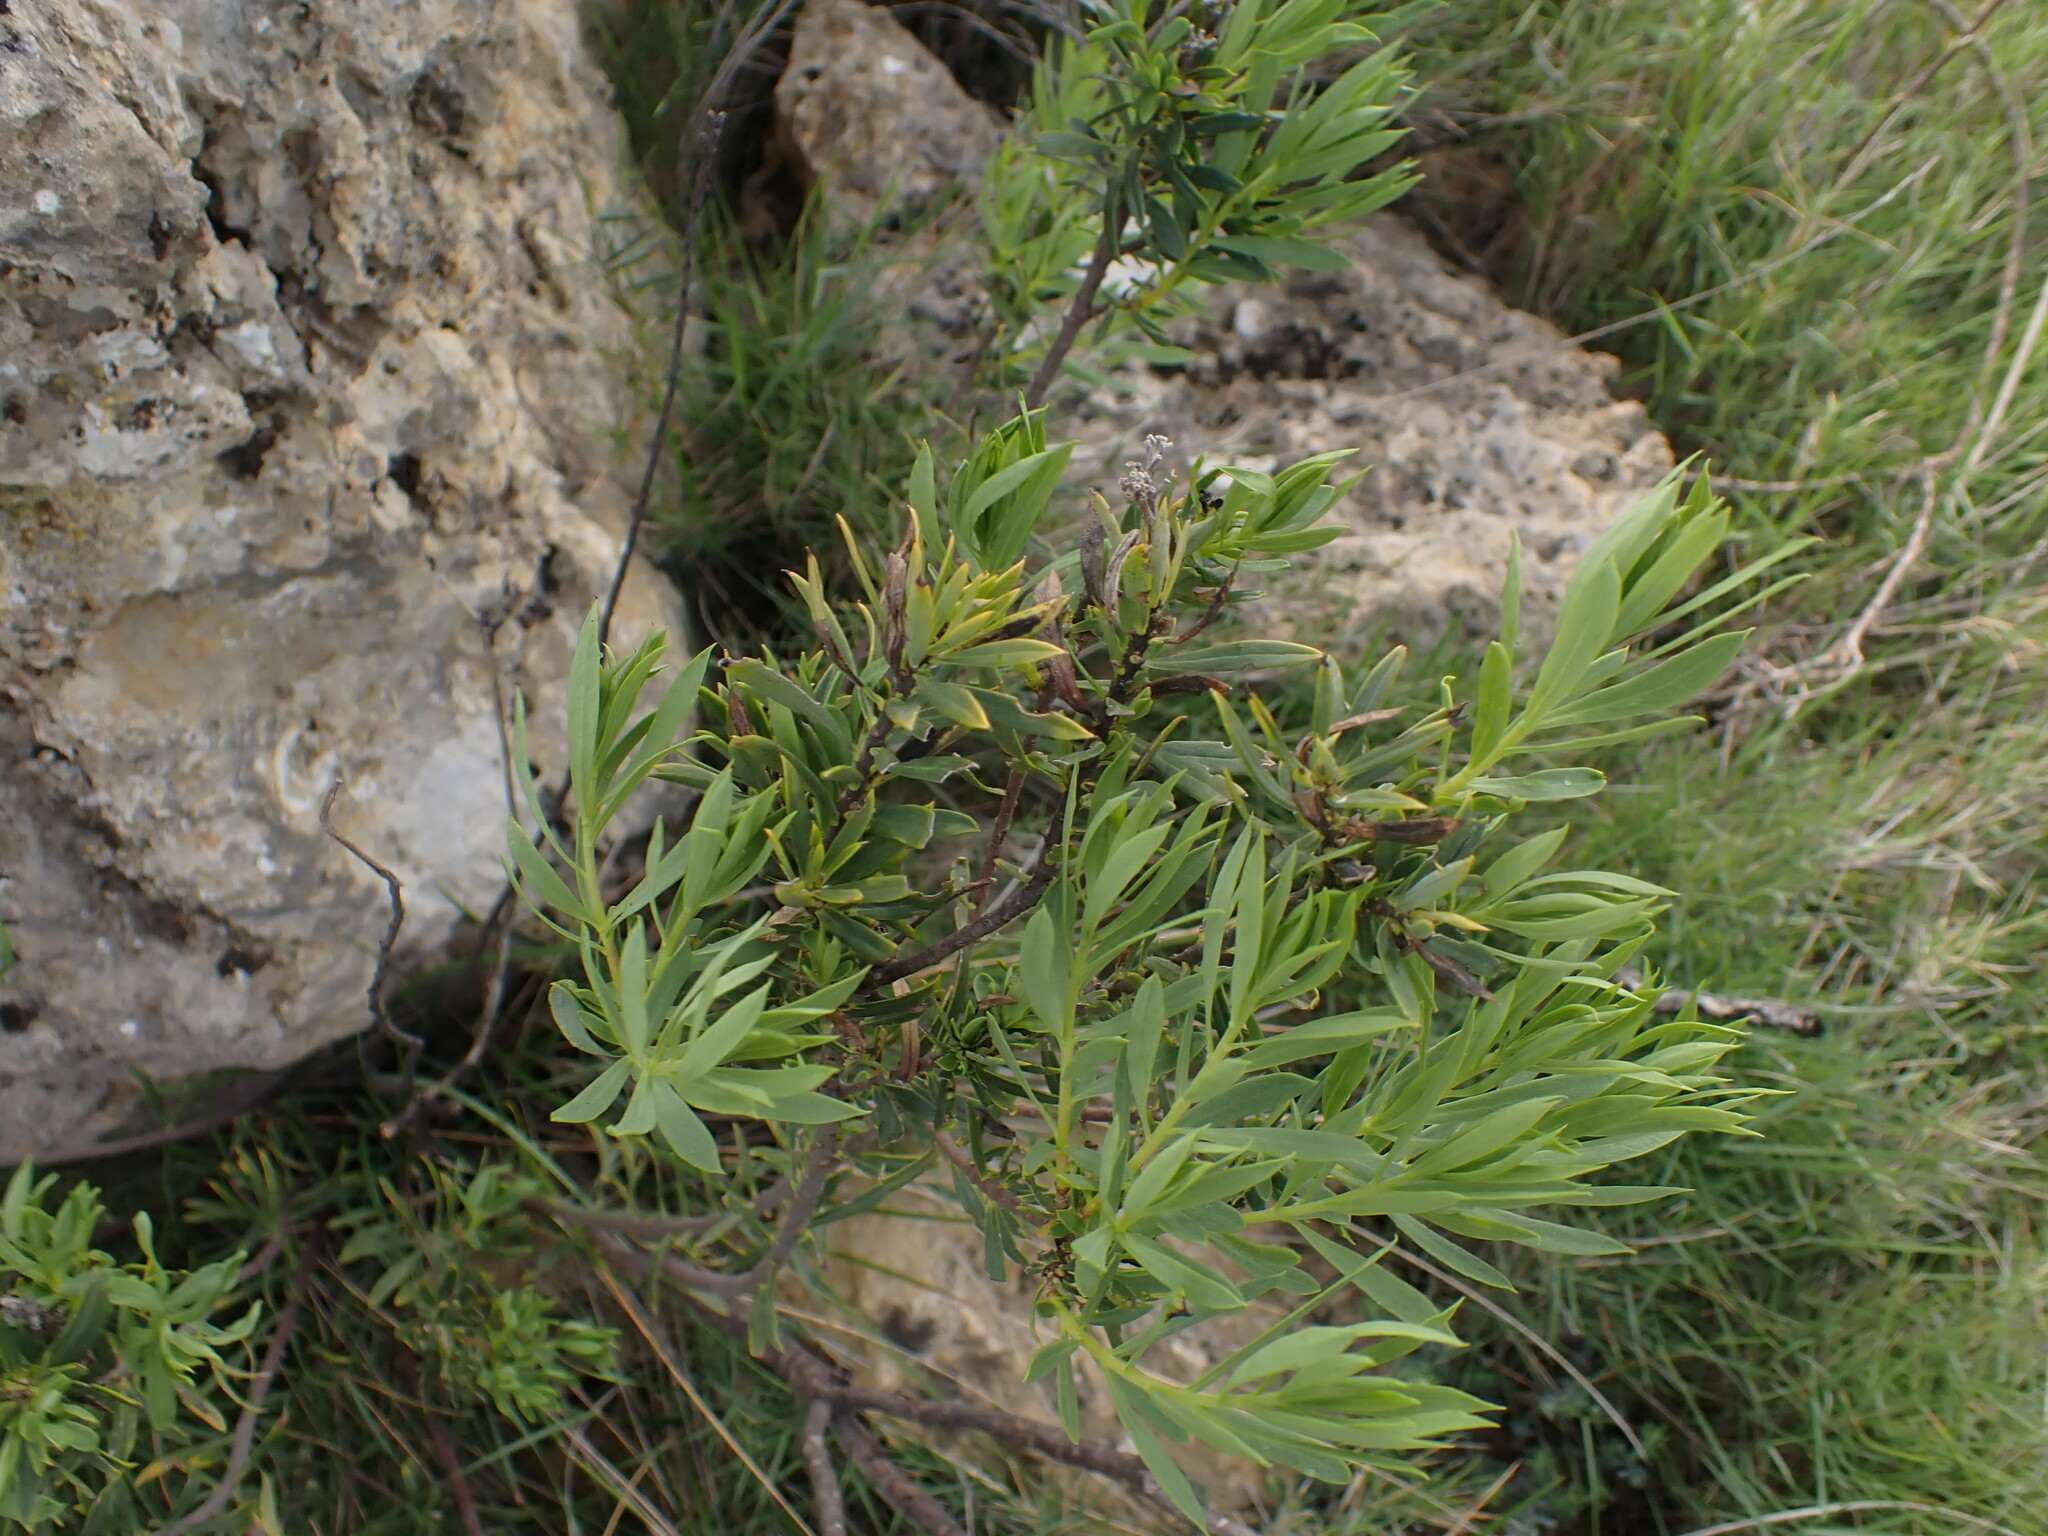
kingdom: Plantae
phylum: Tracheophyta
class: Magnoliopsida
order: Malvales
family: Thymelaeaceae
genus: Daphne
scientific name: Daphne gnidium
